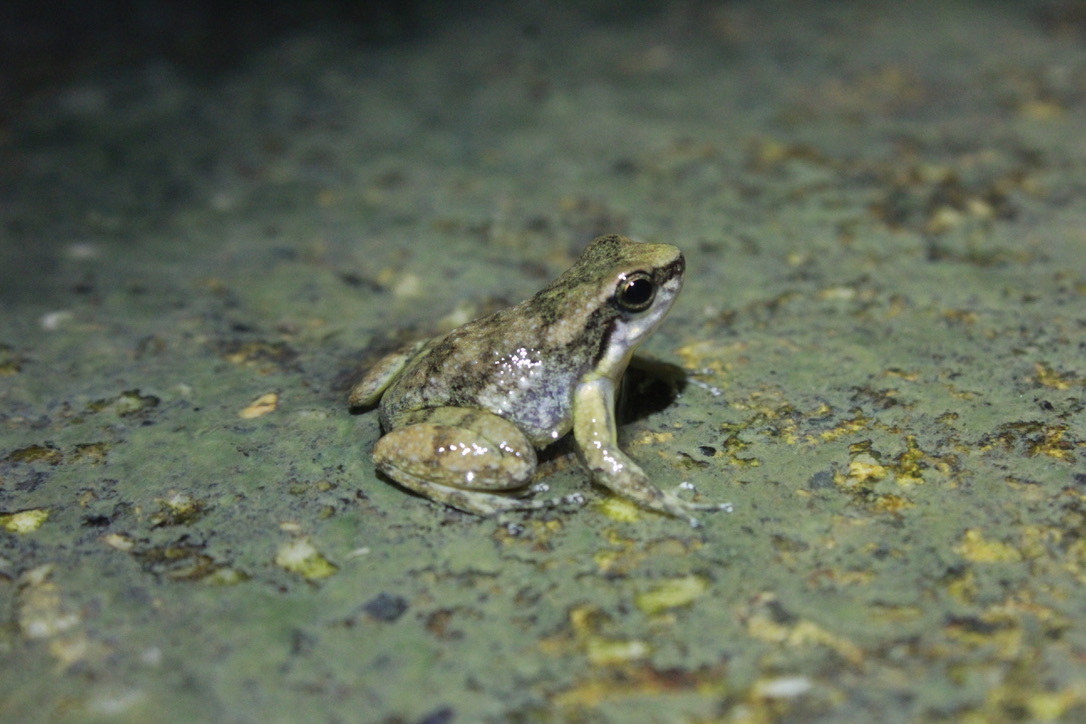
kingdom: Animalia
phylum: Chordata
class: Amphibia
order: Anura
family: Aromobatidae
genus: Mannophryne
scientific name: Mannophryne olmonae
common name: Bloody bay poison frog
